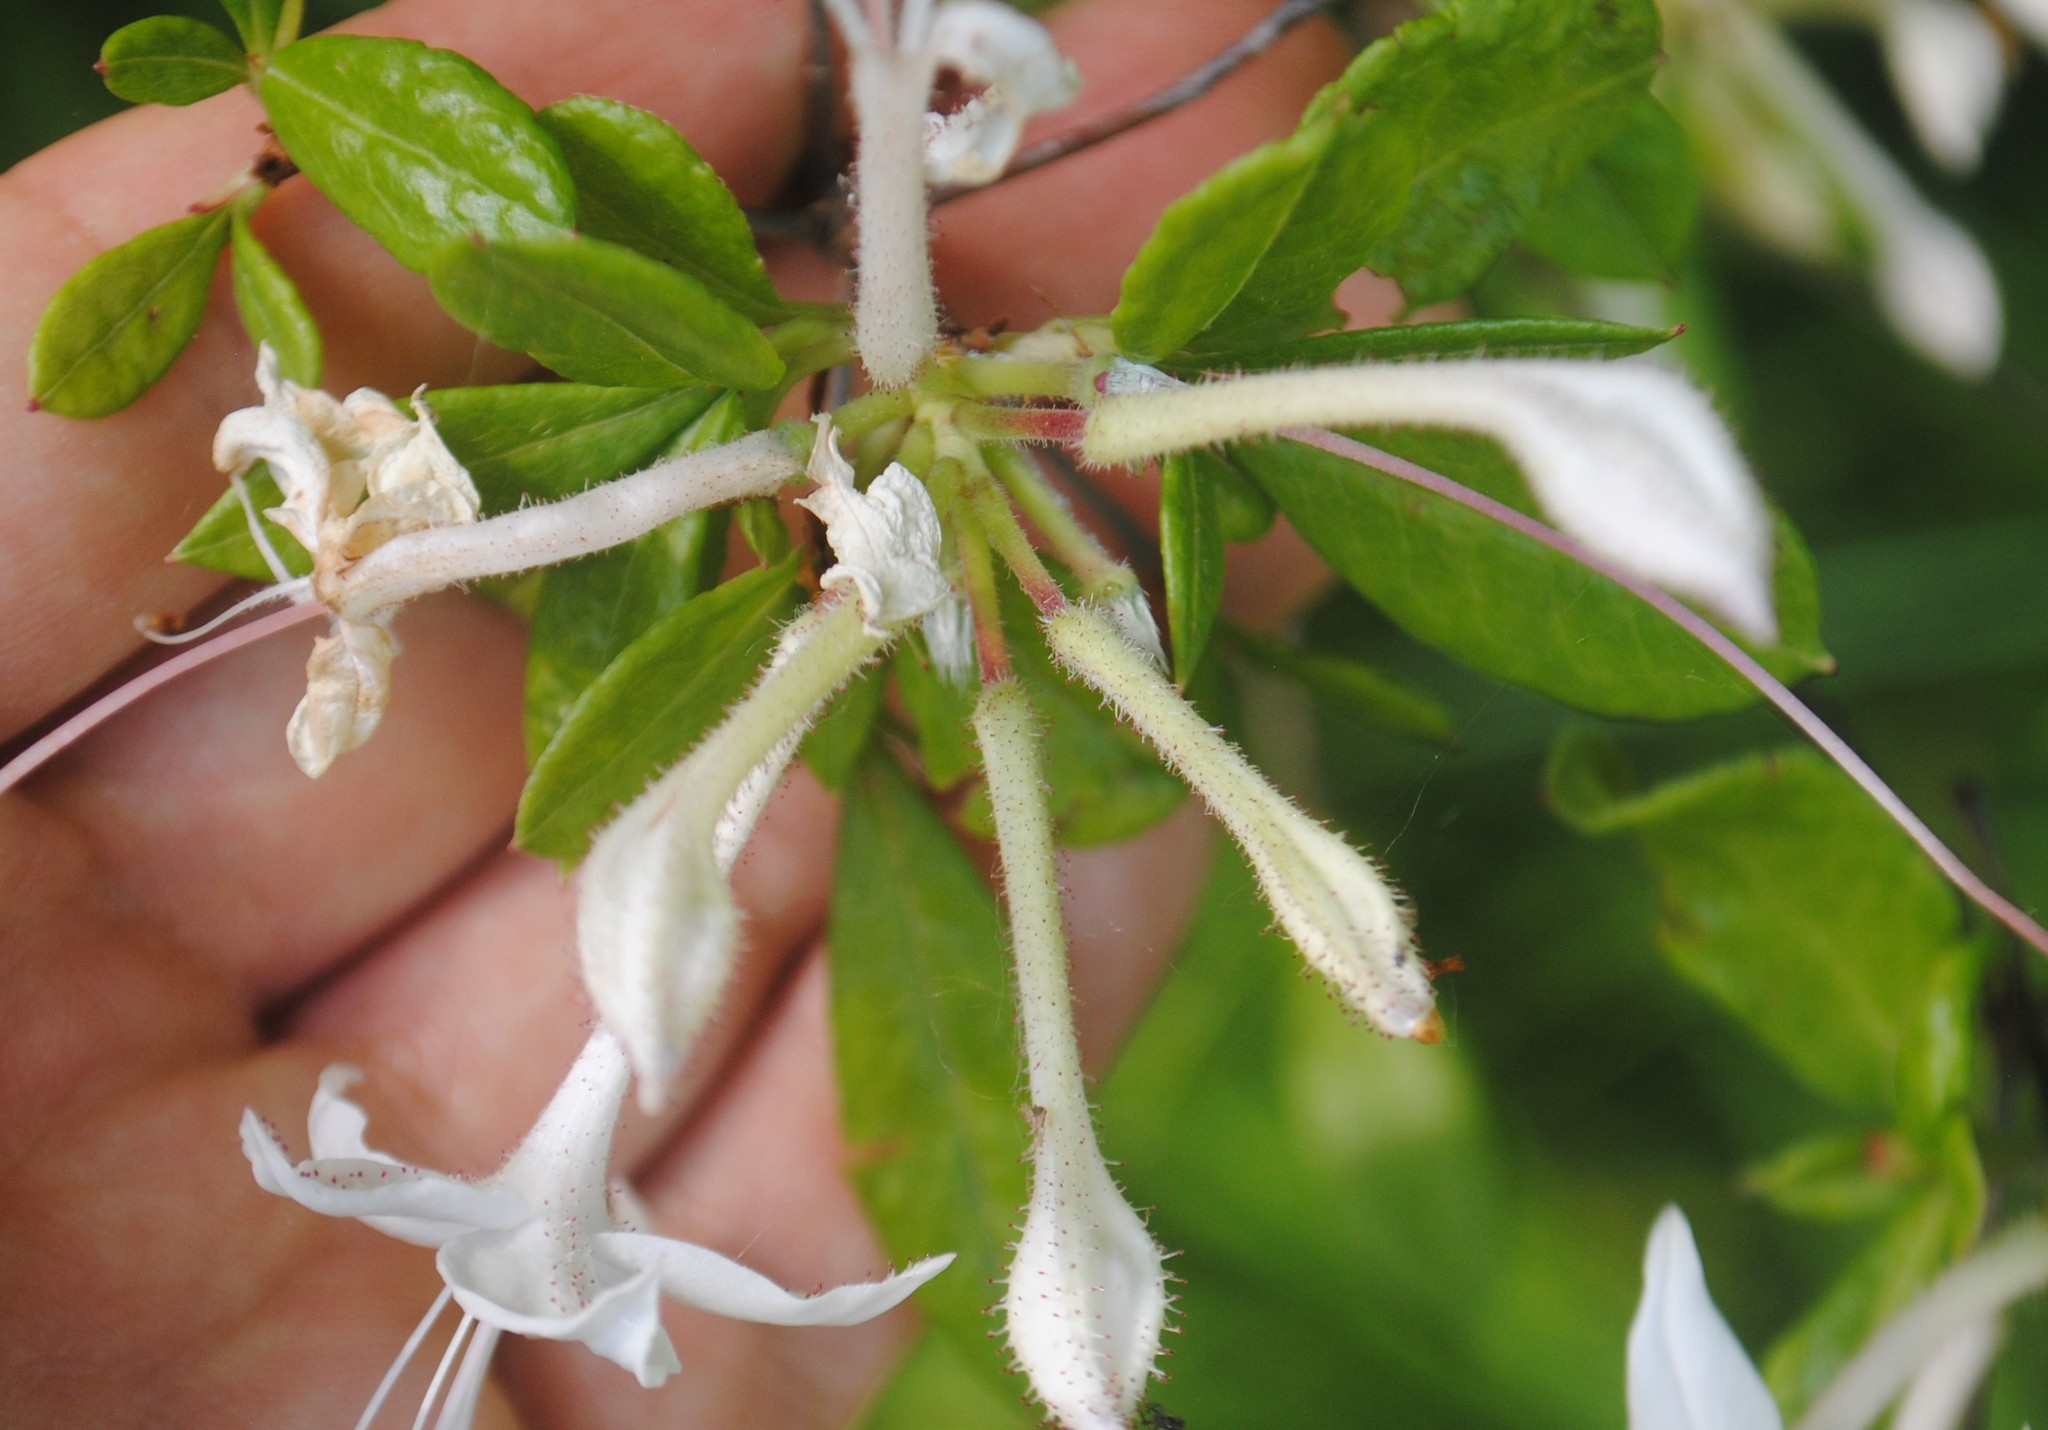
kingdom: Plantae
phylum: Tracheophyta
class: Magnoliopsida
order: Ericales
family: Ericaceae
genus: Rhododendron
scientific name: Rhododendron viscosum
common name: Clammy azalea
